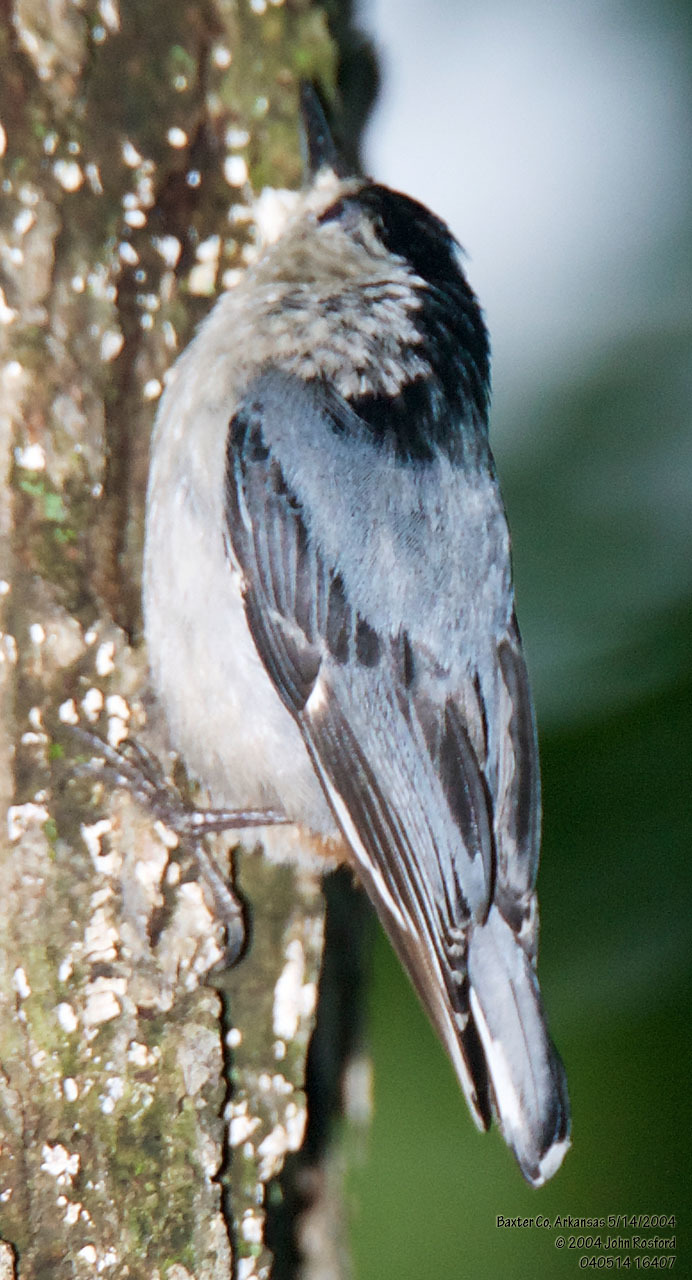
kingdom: Animalia
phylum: Chordata
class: Aves
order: Passeriformes
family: Sittidae
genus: Sitta
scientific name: Sitta carolinensis
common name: White-breasted nuthatch
